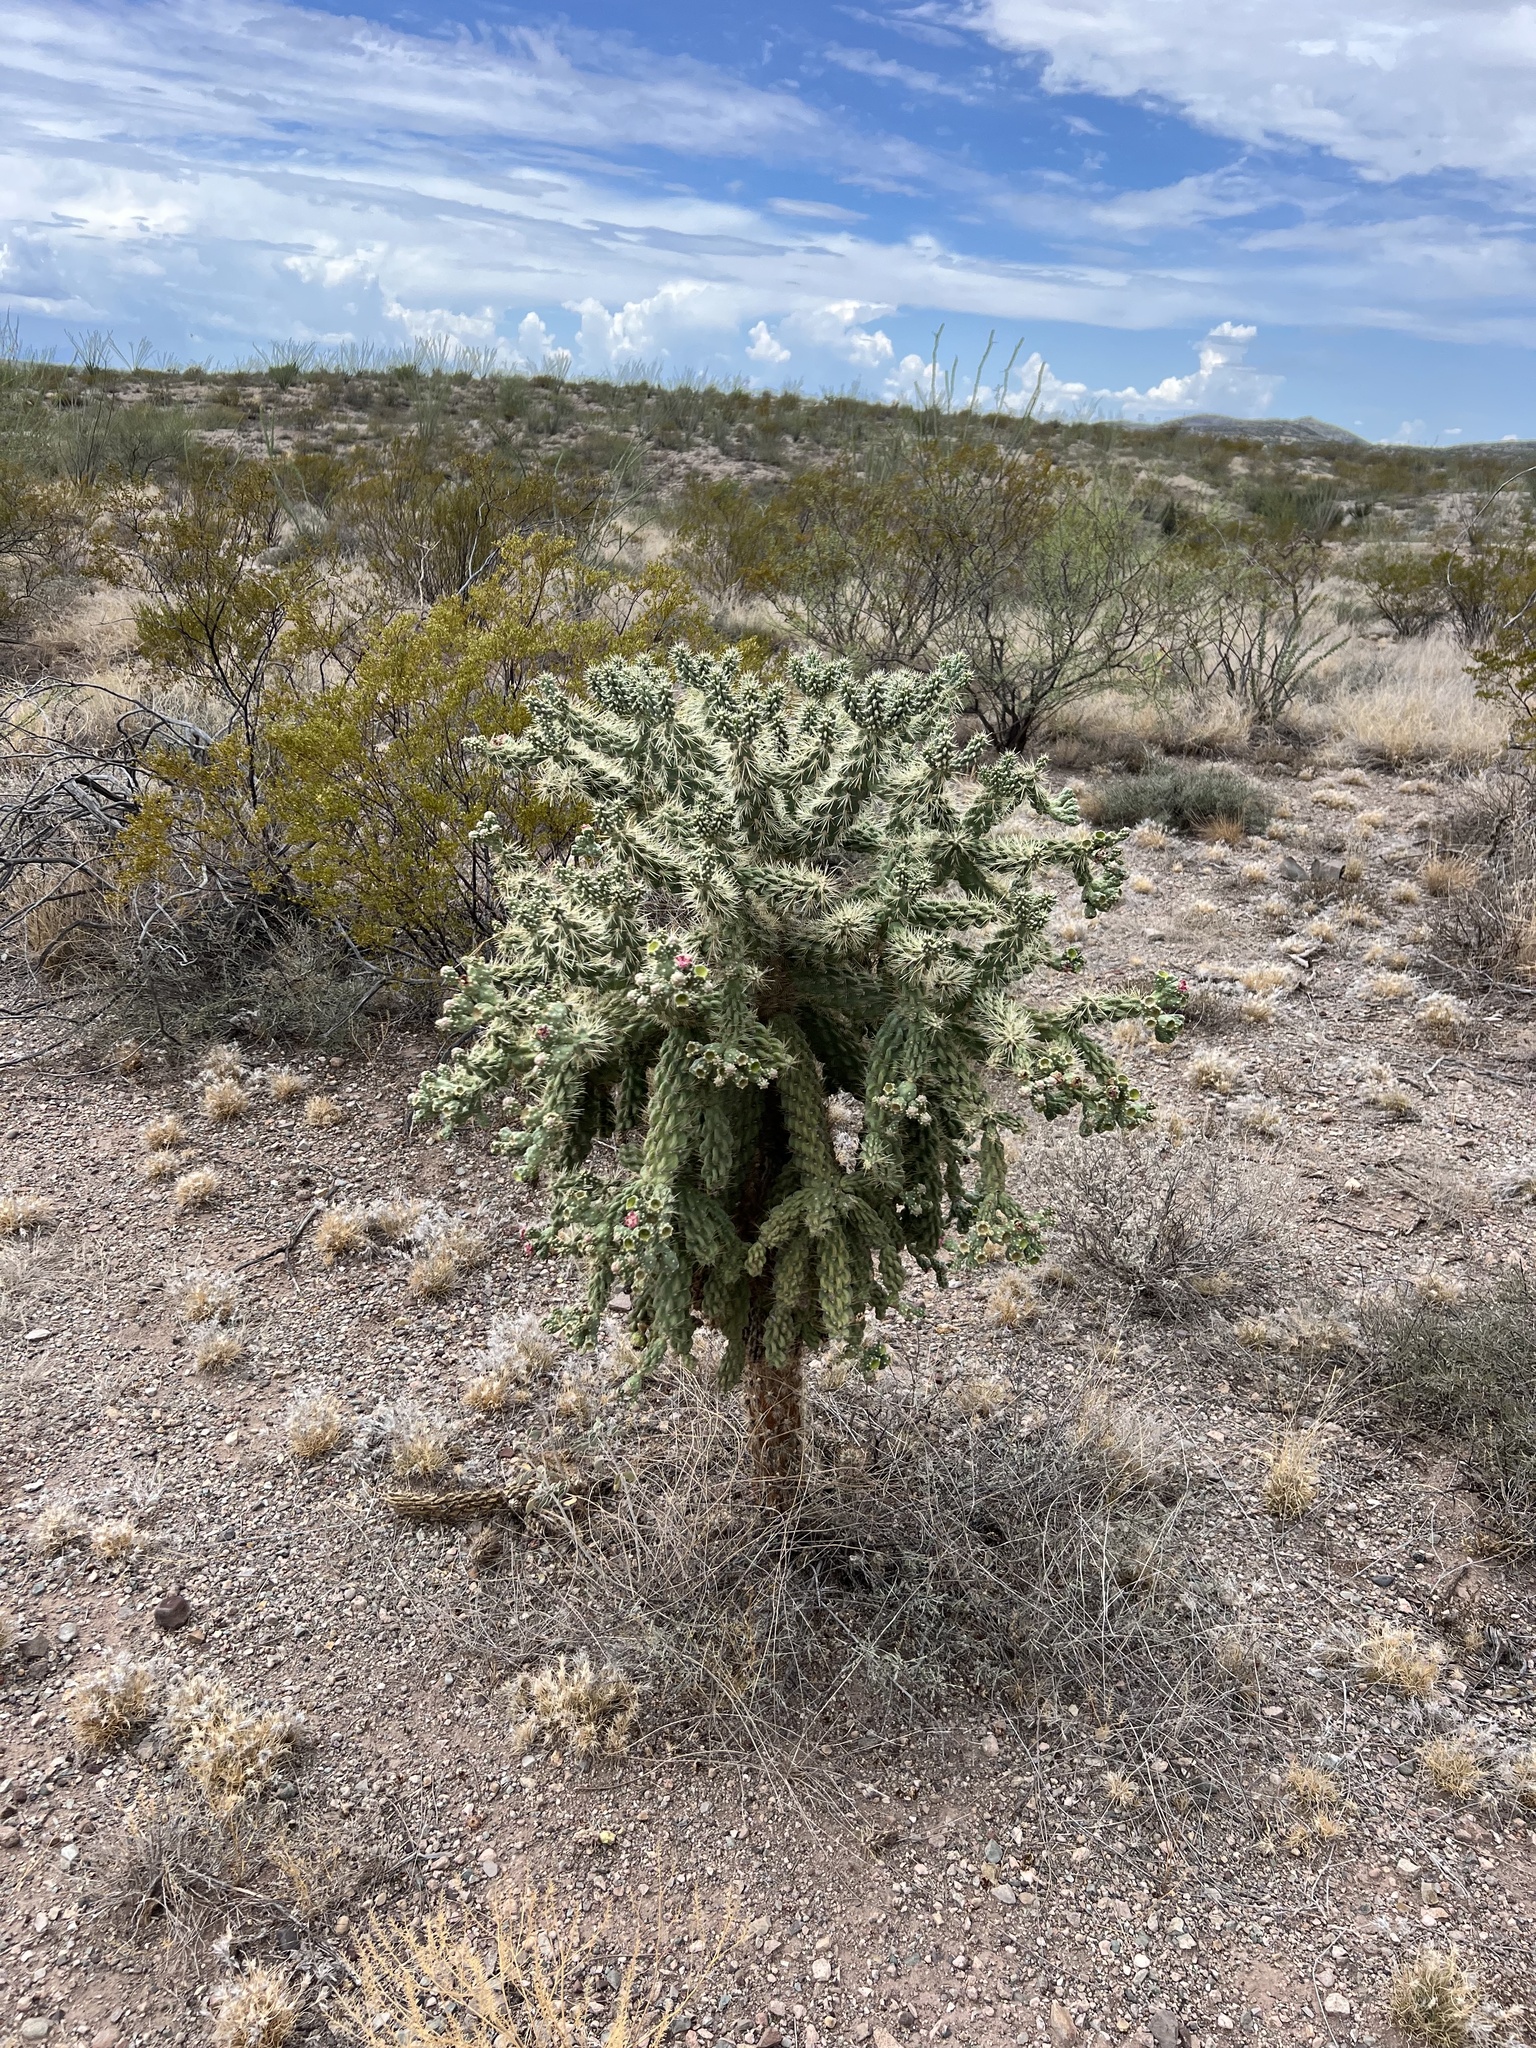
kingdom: Plantae
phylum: Tracheophyta
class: Magnoliopsida
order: Caryophyllales
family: Cactaceae
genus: Cylindropuntia
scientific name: Cylindropuntia fulgida
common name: Jumping cholla
